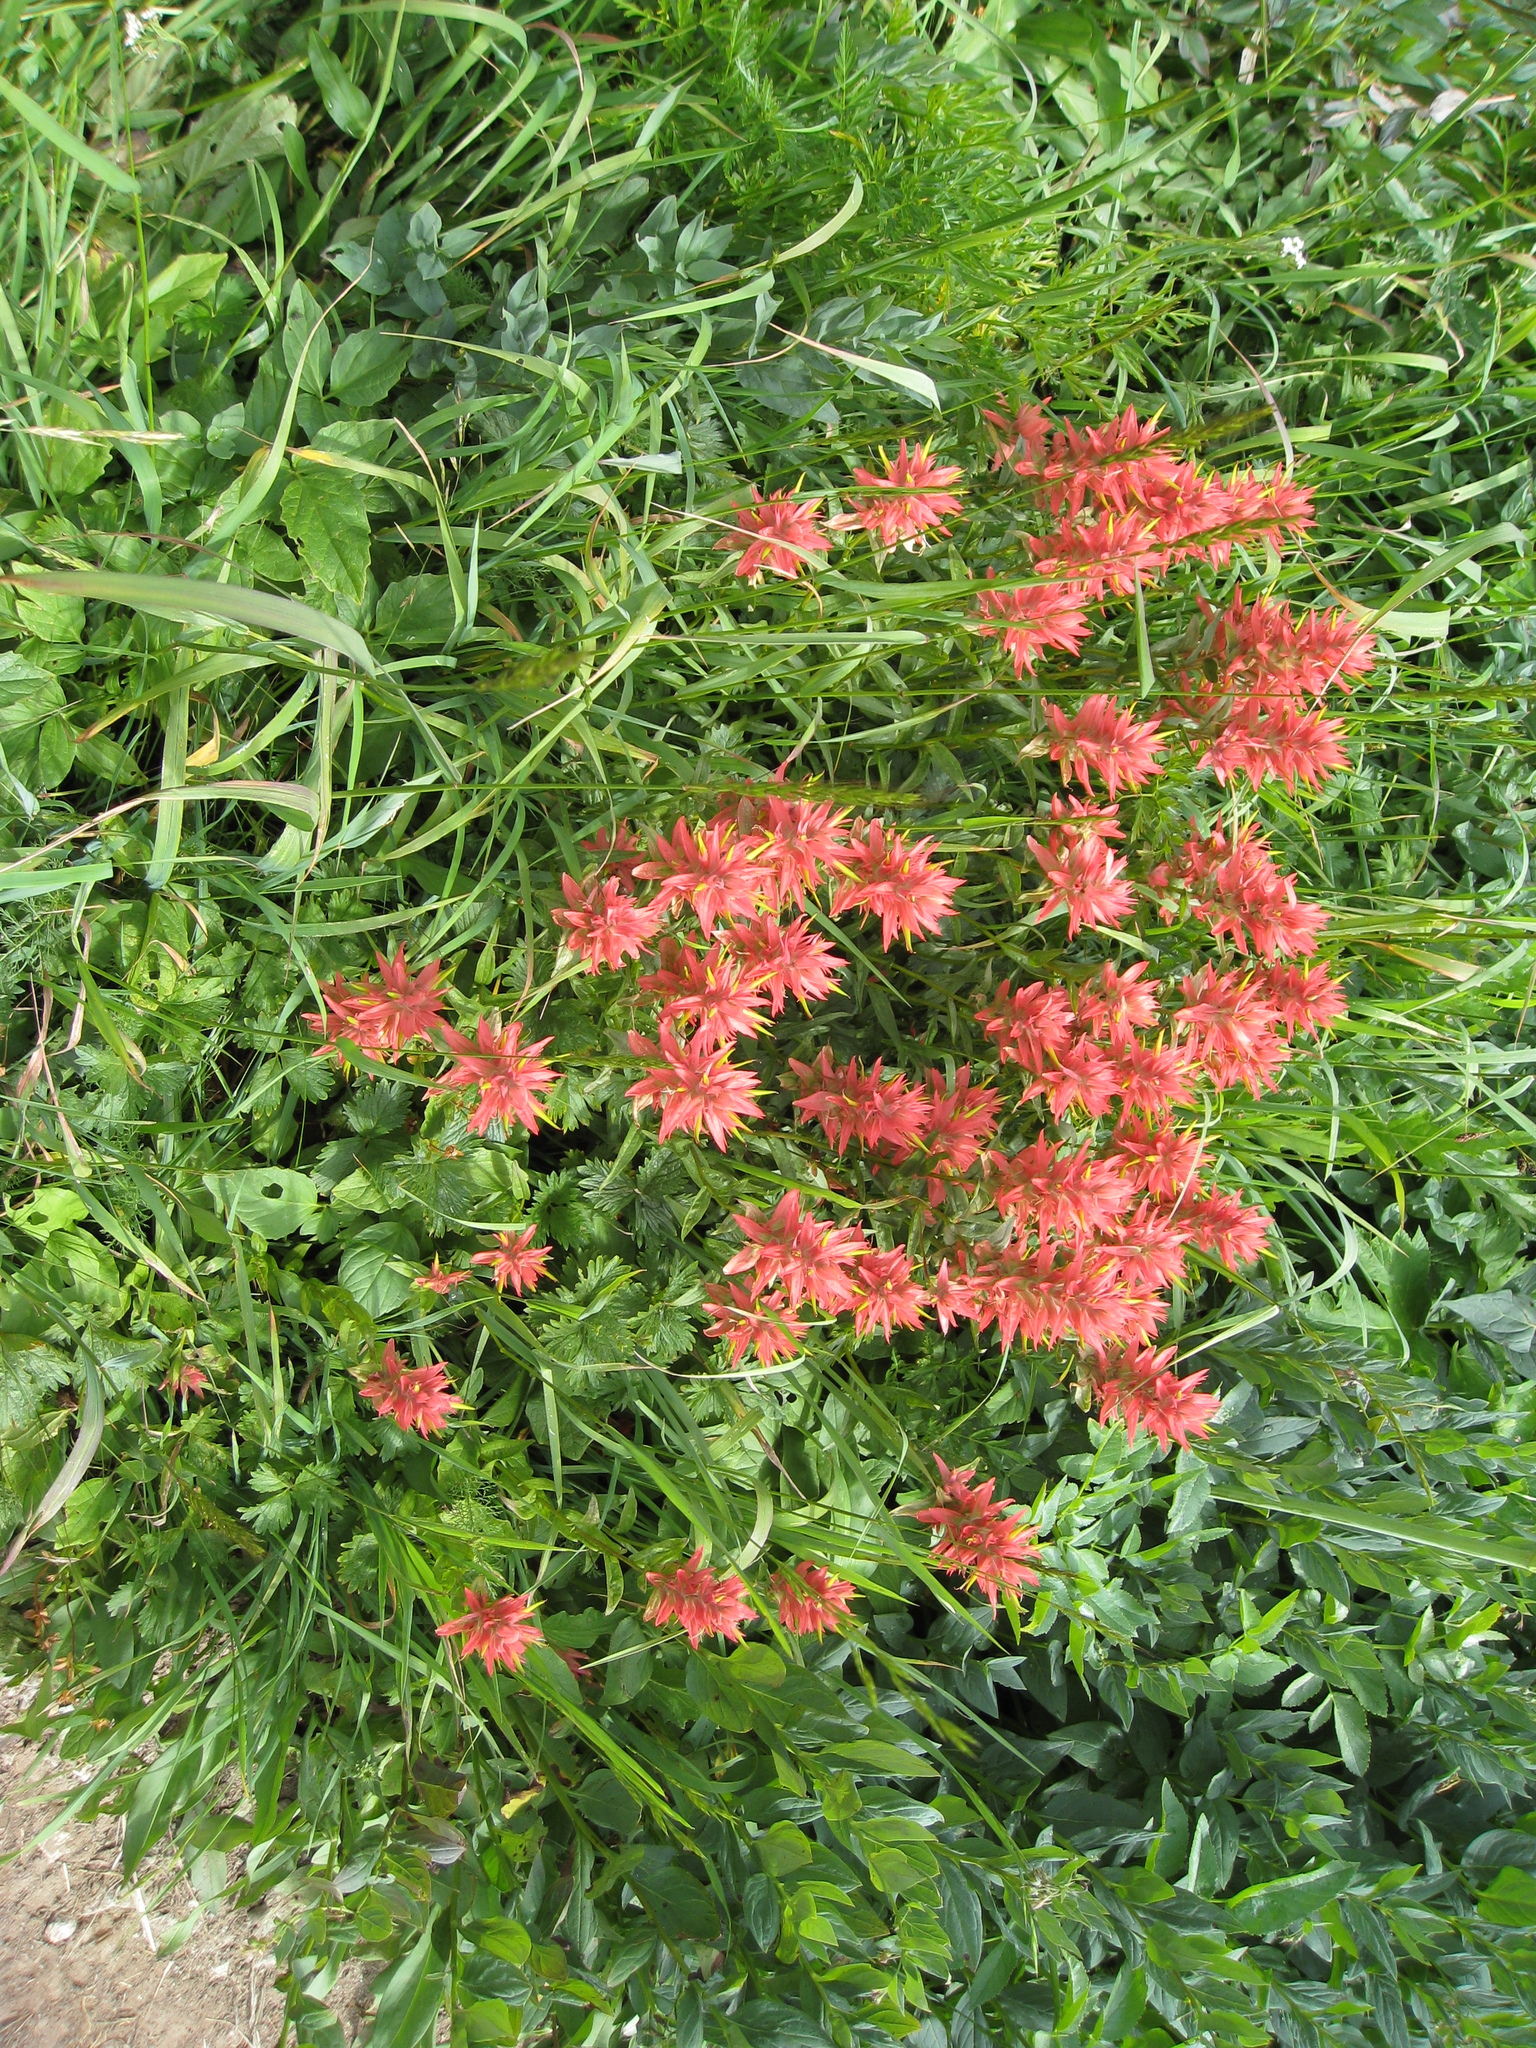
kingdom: Plantae
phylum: Tracheophyta
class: Magnoliopsida
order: Lamiales
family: Orobanchaceae
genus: Castilleja
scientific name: Castilleja miniata
